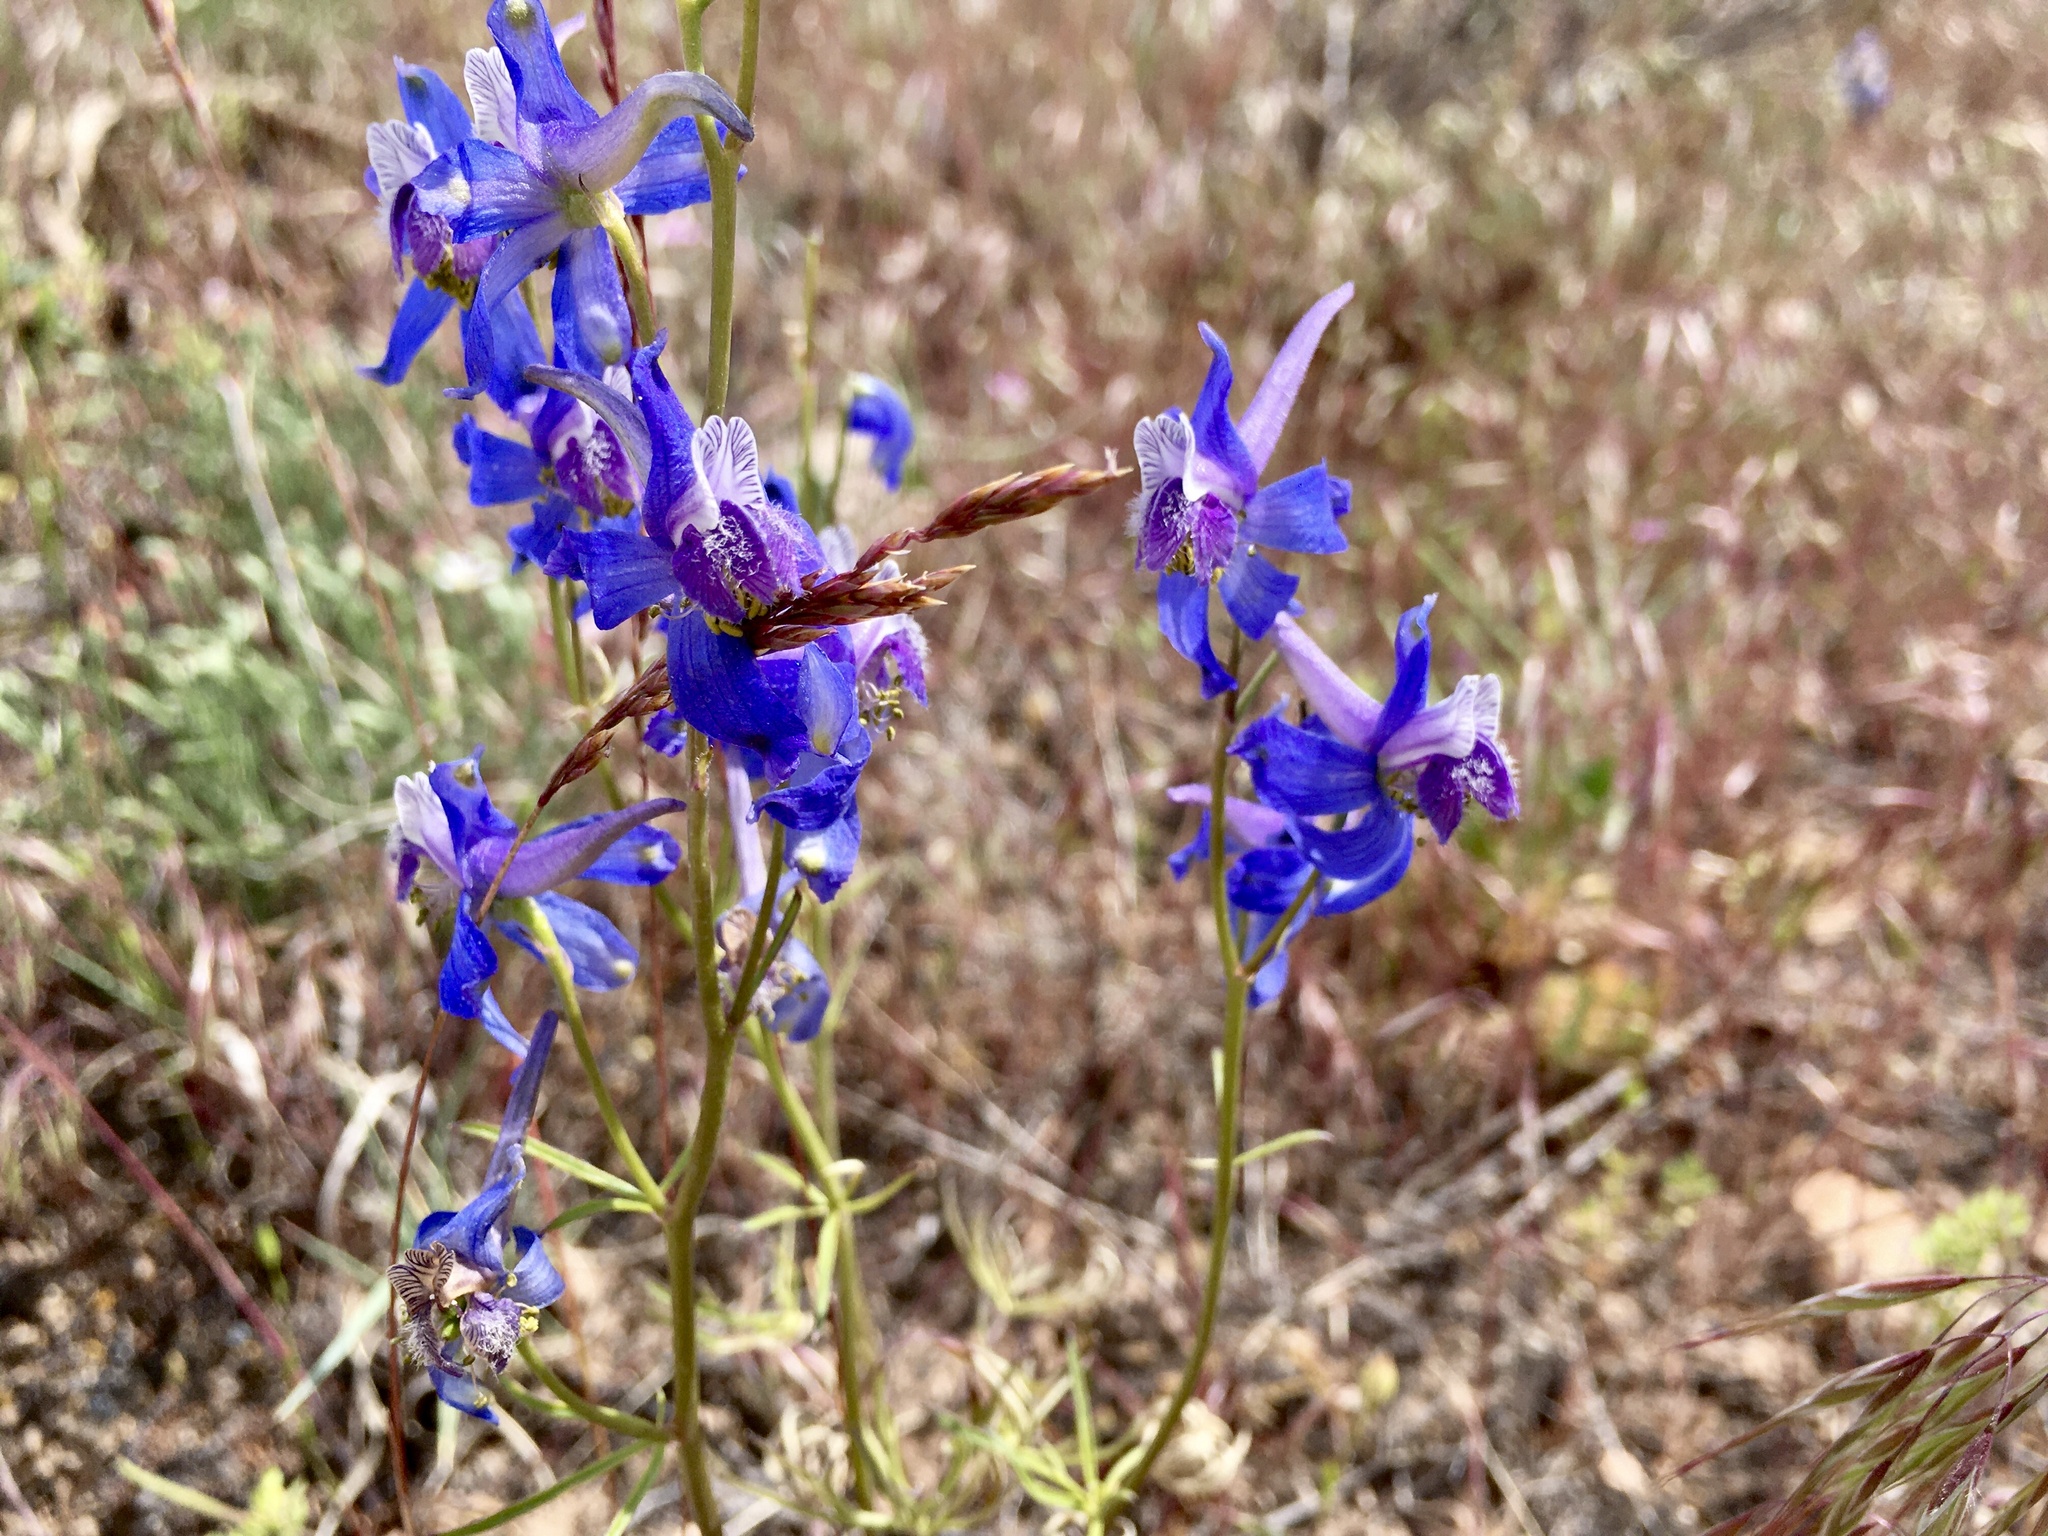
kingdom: Plantae
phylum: Tracheophyta
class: Magnoliopsida
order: Ranunculales
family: Ranunculaceae
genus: Delphinium
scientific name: Delphinium nuttallianum
